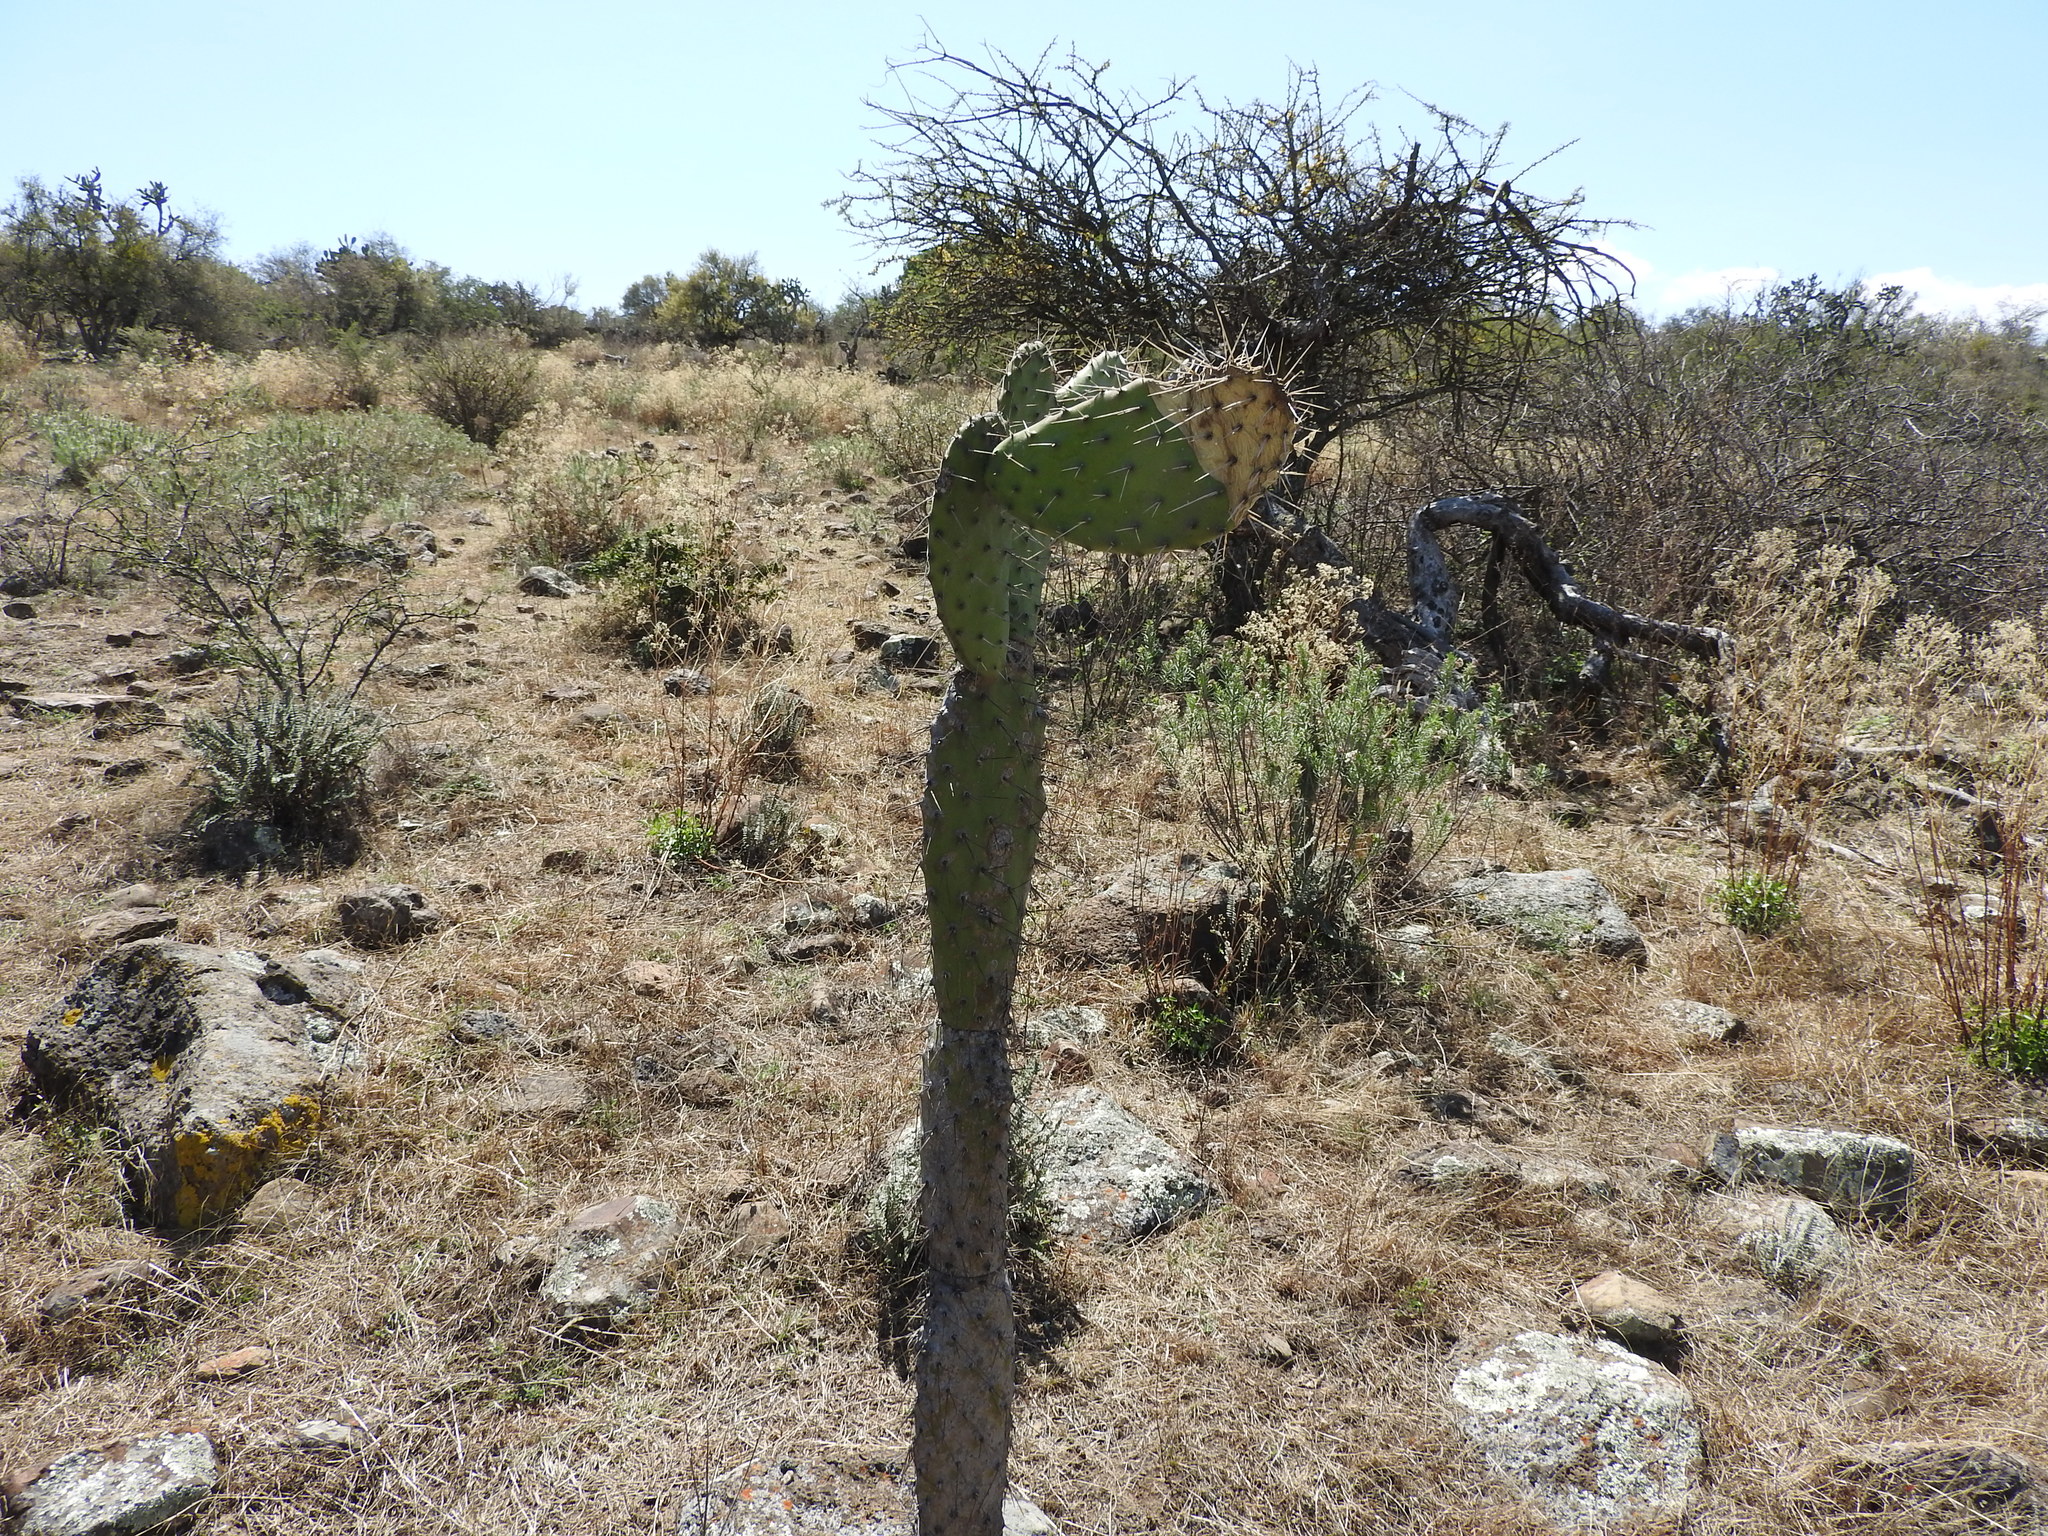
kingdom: Plantae
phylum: Tracheophyta
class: Magnoliopsida
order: Caryophyllales
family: Cactaceae
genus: Opuntia
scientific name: Opuntia ficus-indica
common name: Barbary fig
